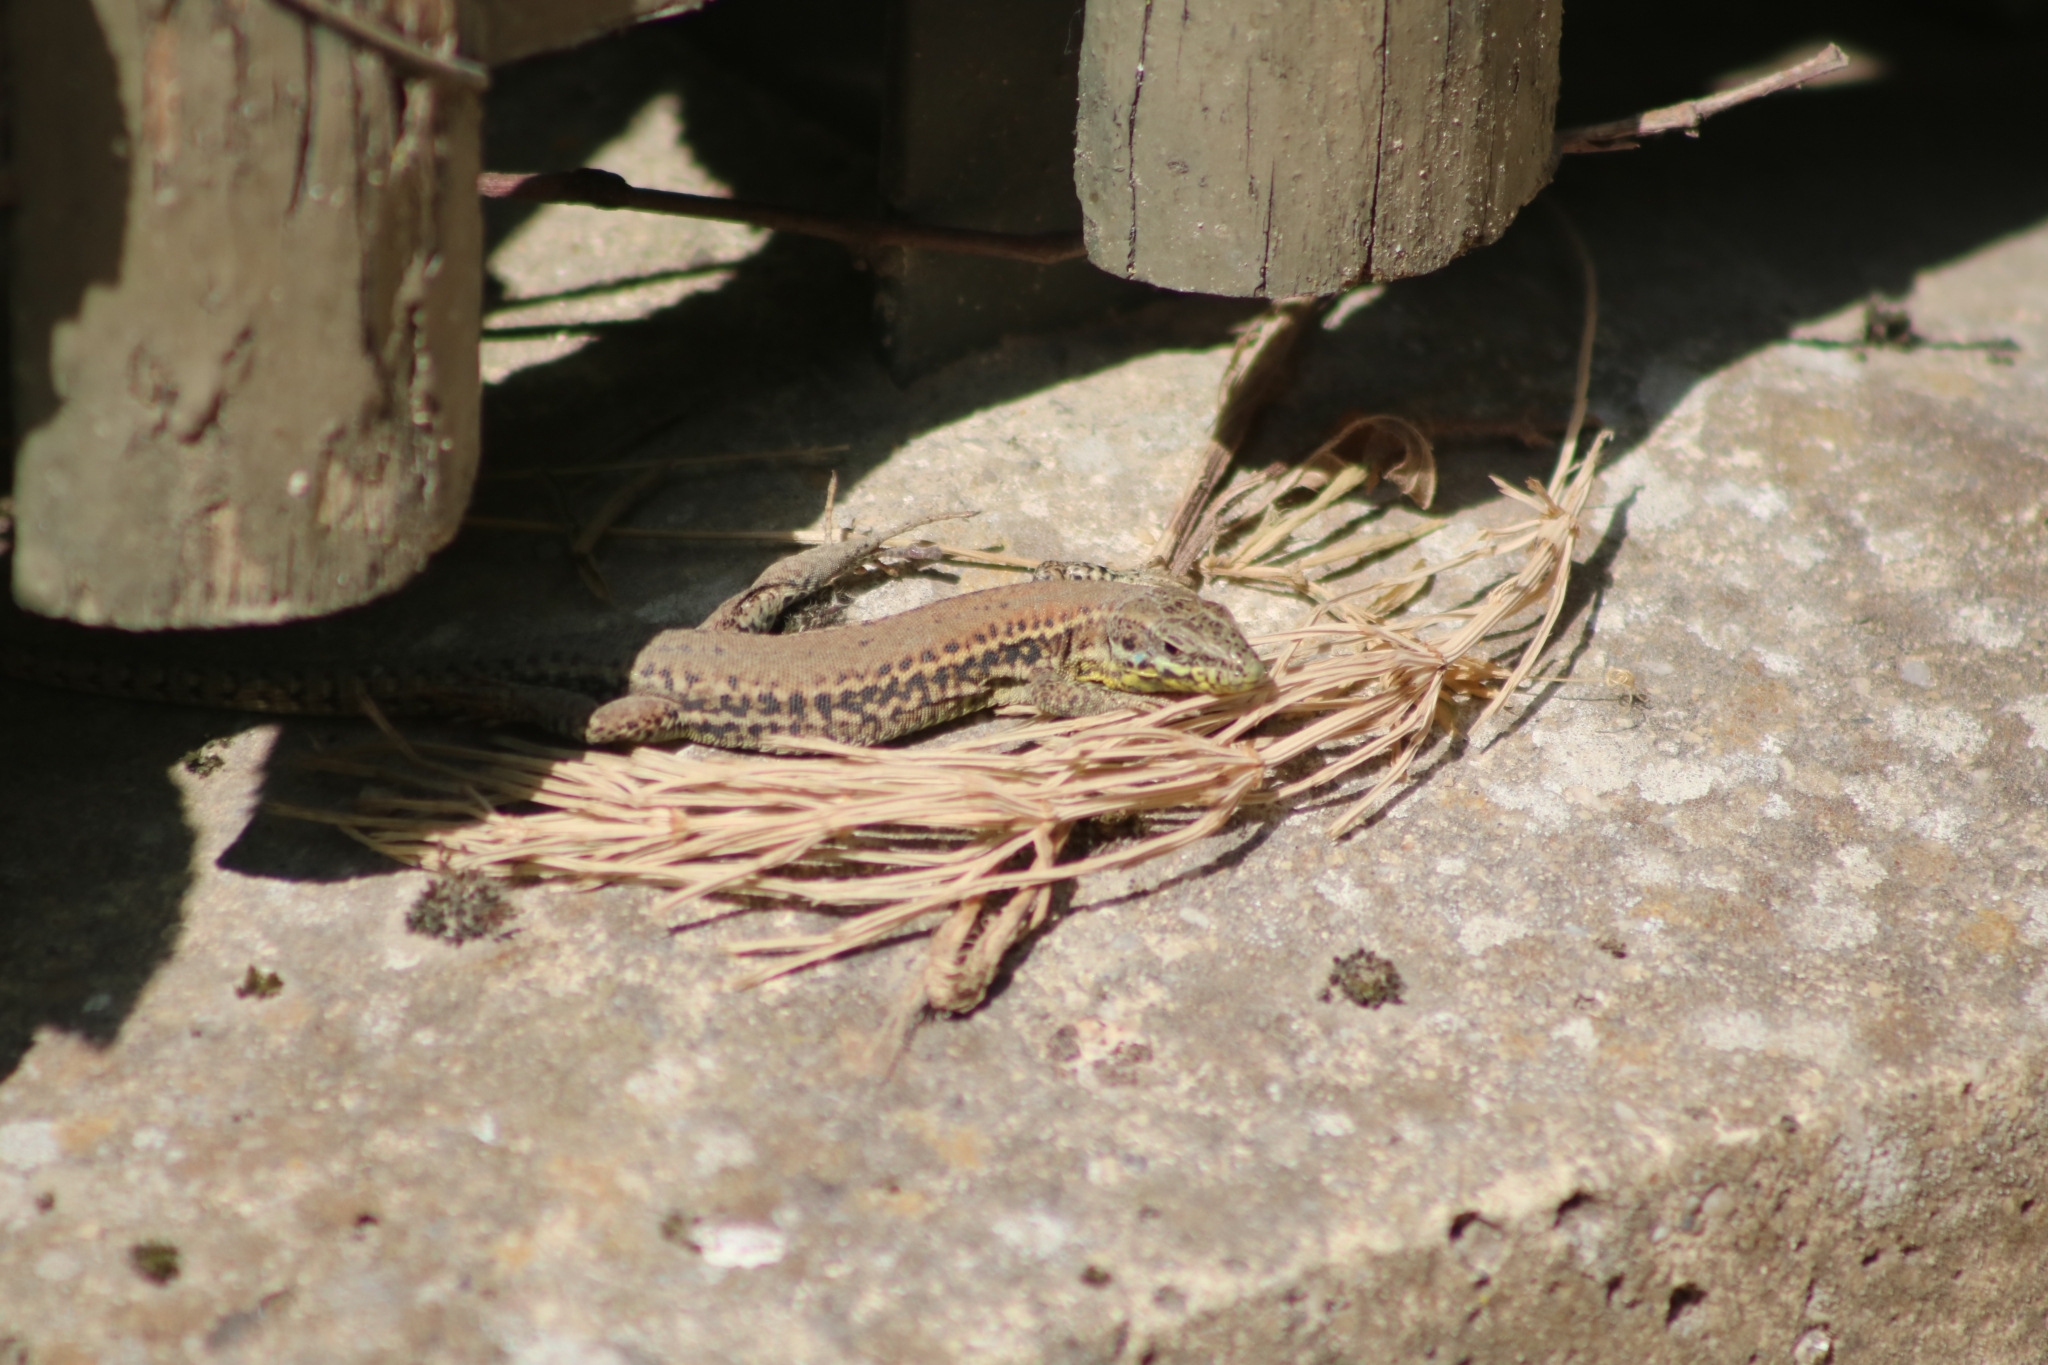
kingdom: Animalia
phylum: Chordata
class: Squamata
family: Lacertidae
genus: Podarcis
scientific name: Podarcis muralis
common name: Common wall lizard
